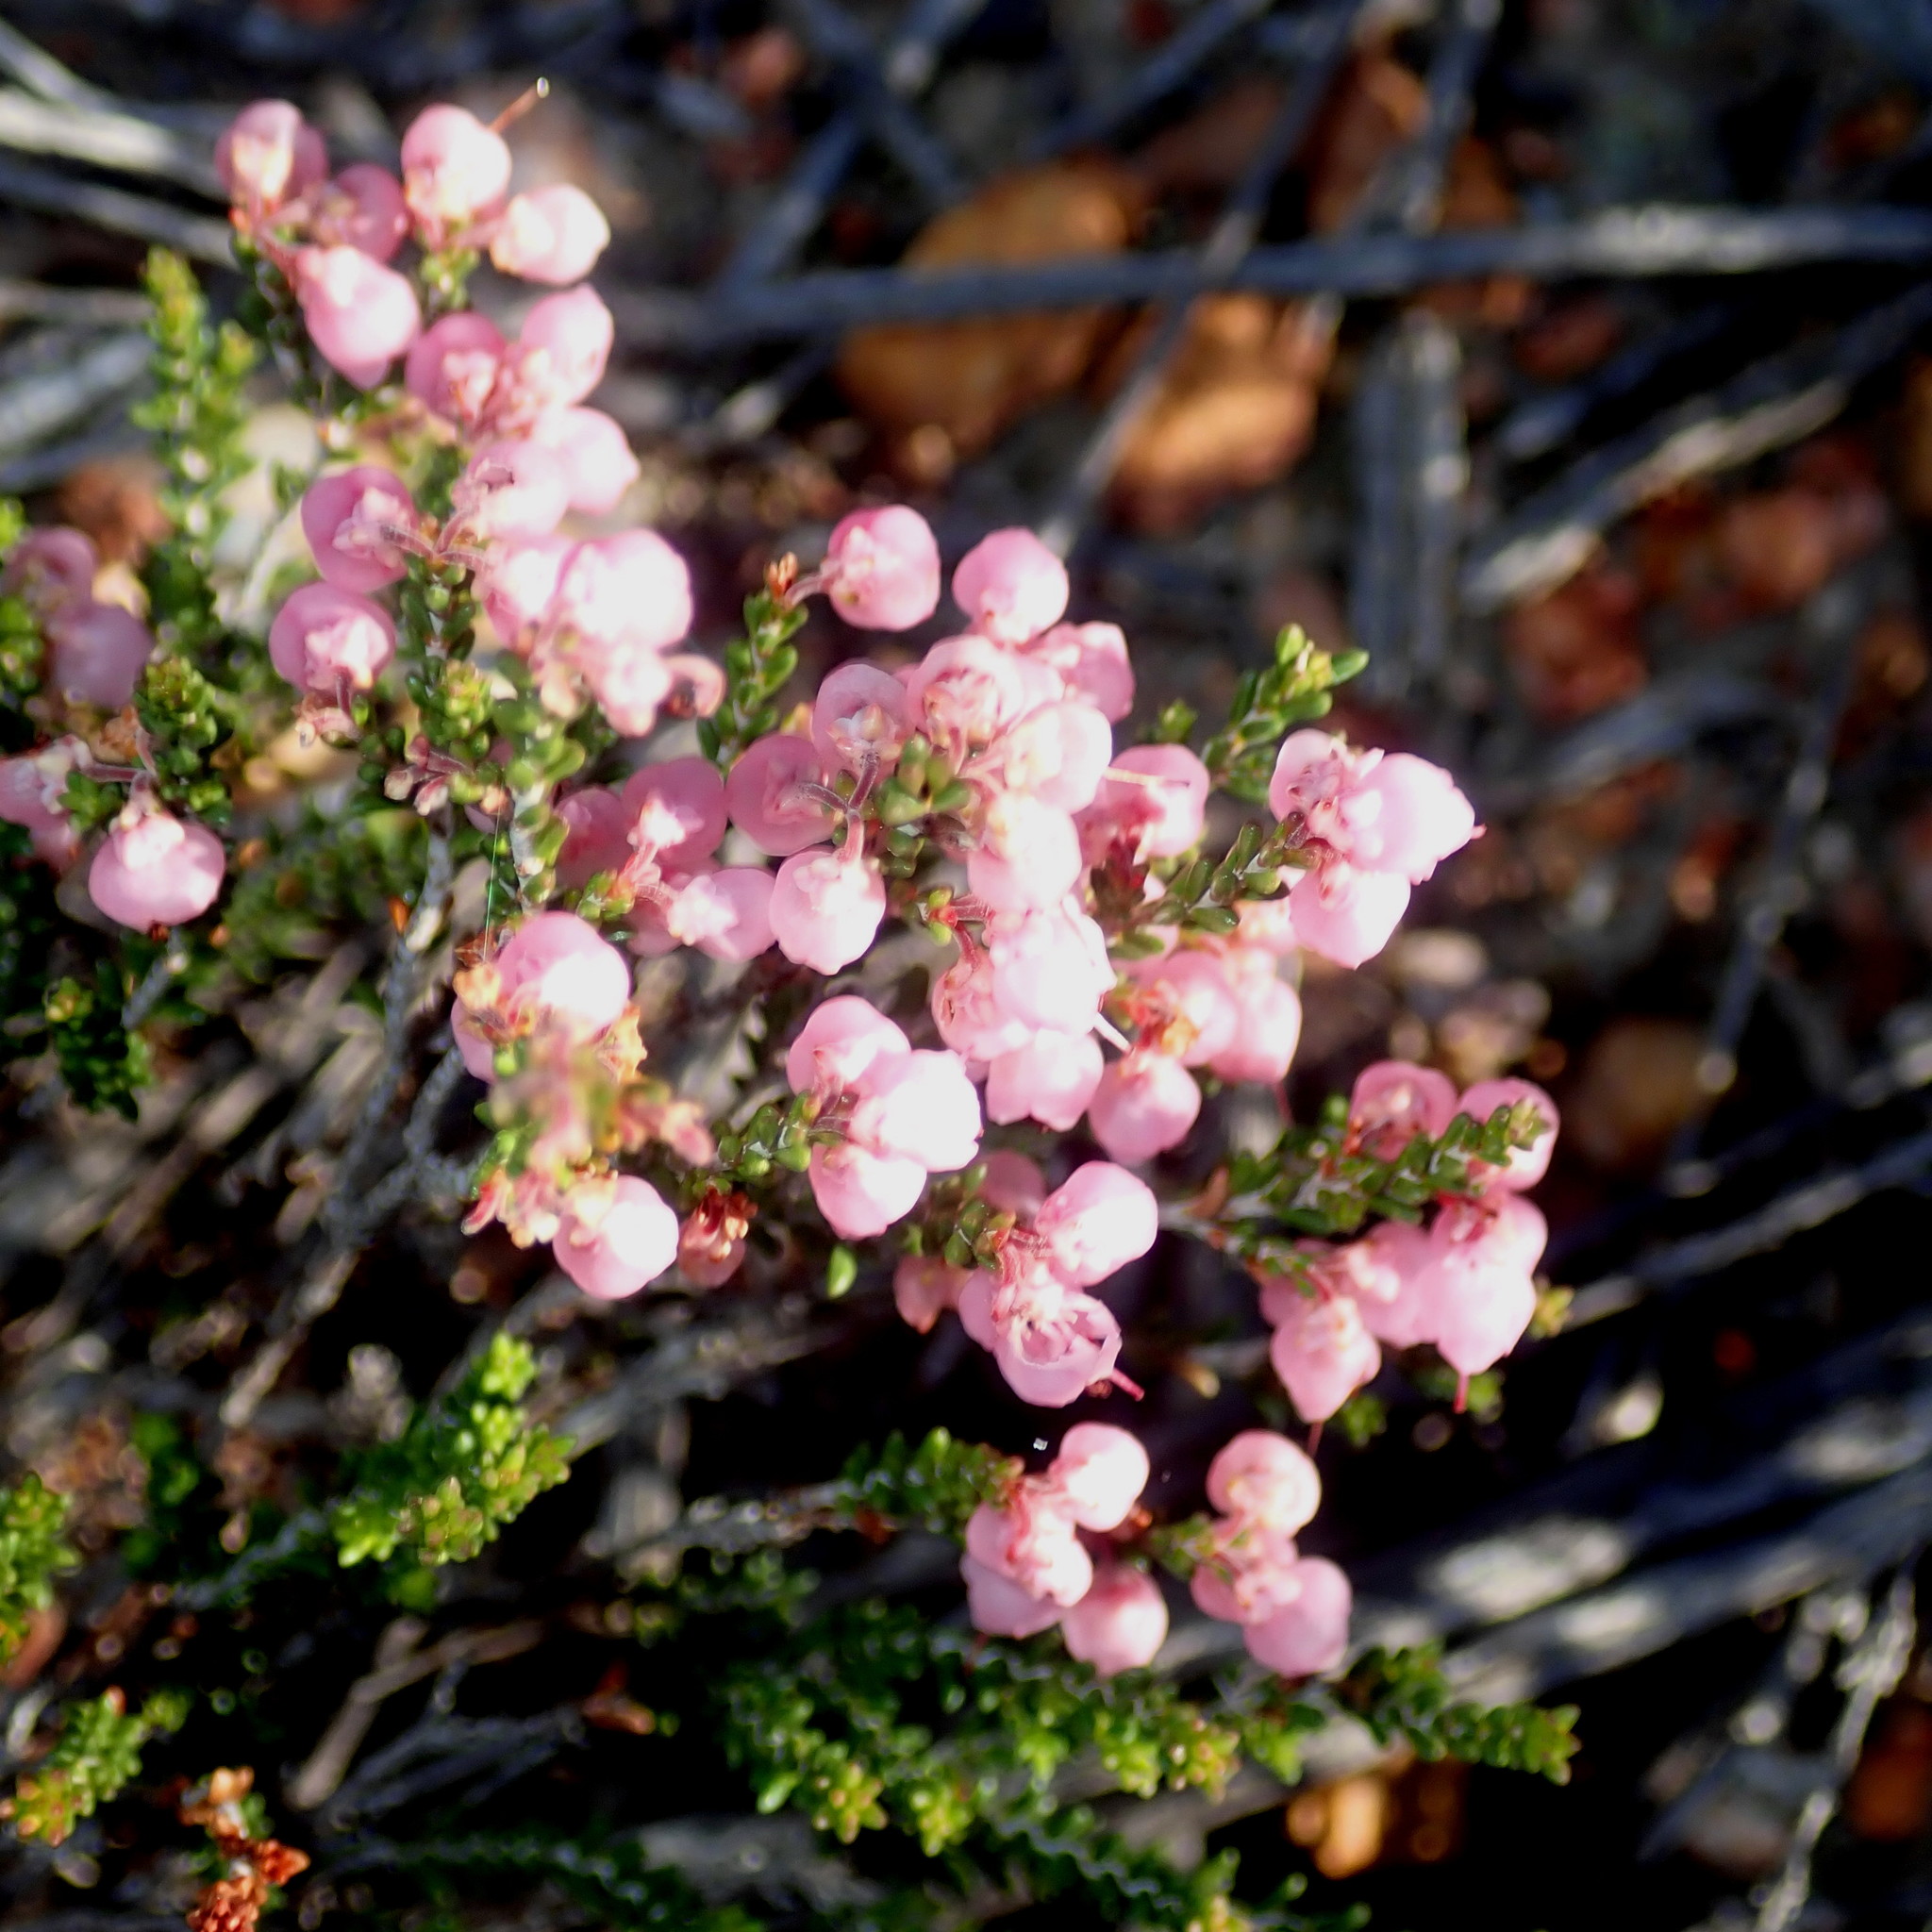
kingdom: Plantae
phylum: Tracheophyta
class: Magnoliopsida
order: Ericales
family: Ericaceae
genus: Erica
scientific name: Erica umbelliflora
